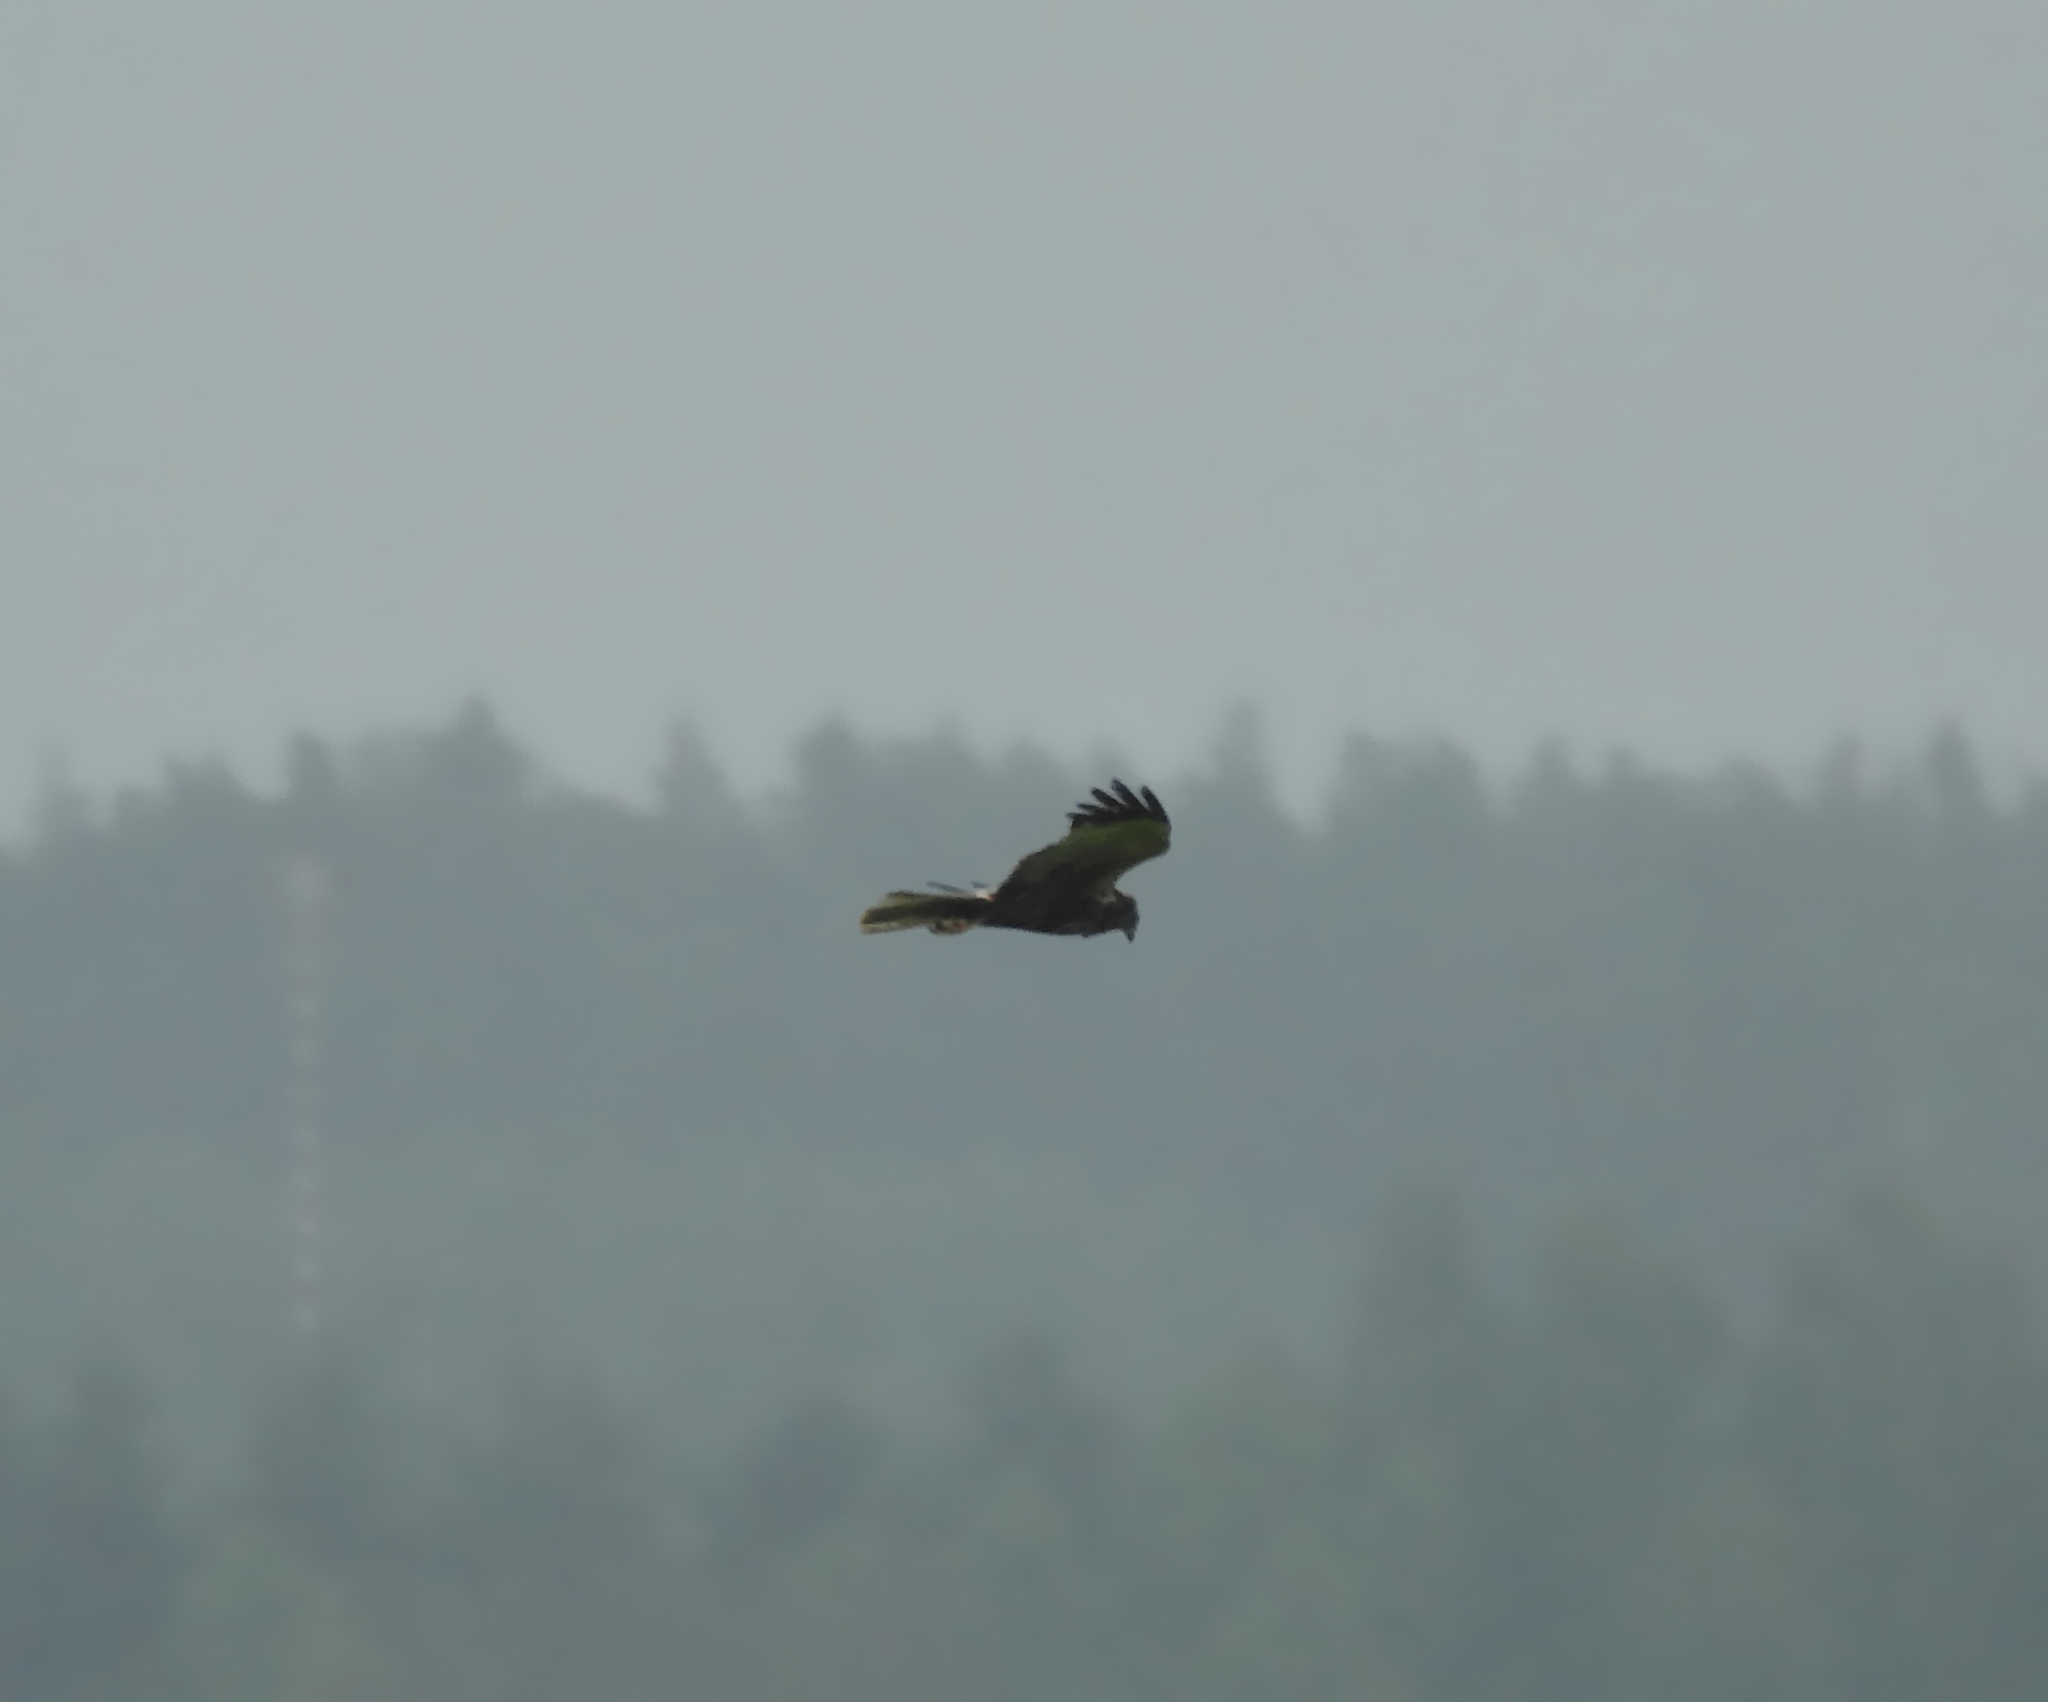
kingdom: Animalia
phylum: Chordata
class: Aves
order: Accipitriformes
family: Accipitridae
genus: Circus
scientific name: Circus aeruginosus
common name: Western marsh harrier
